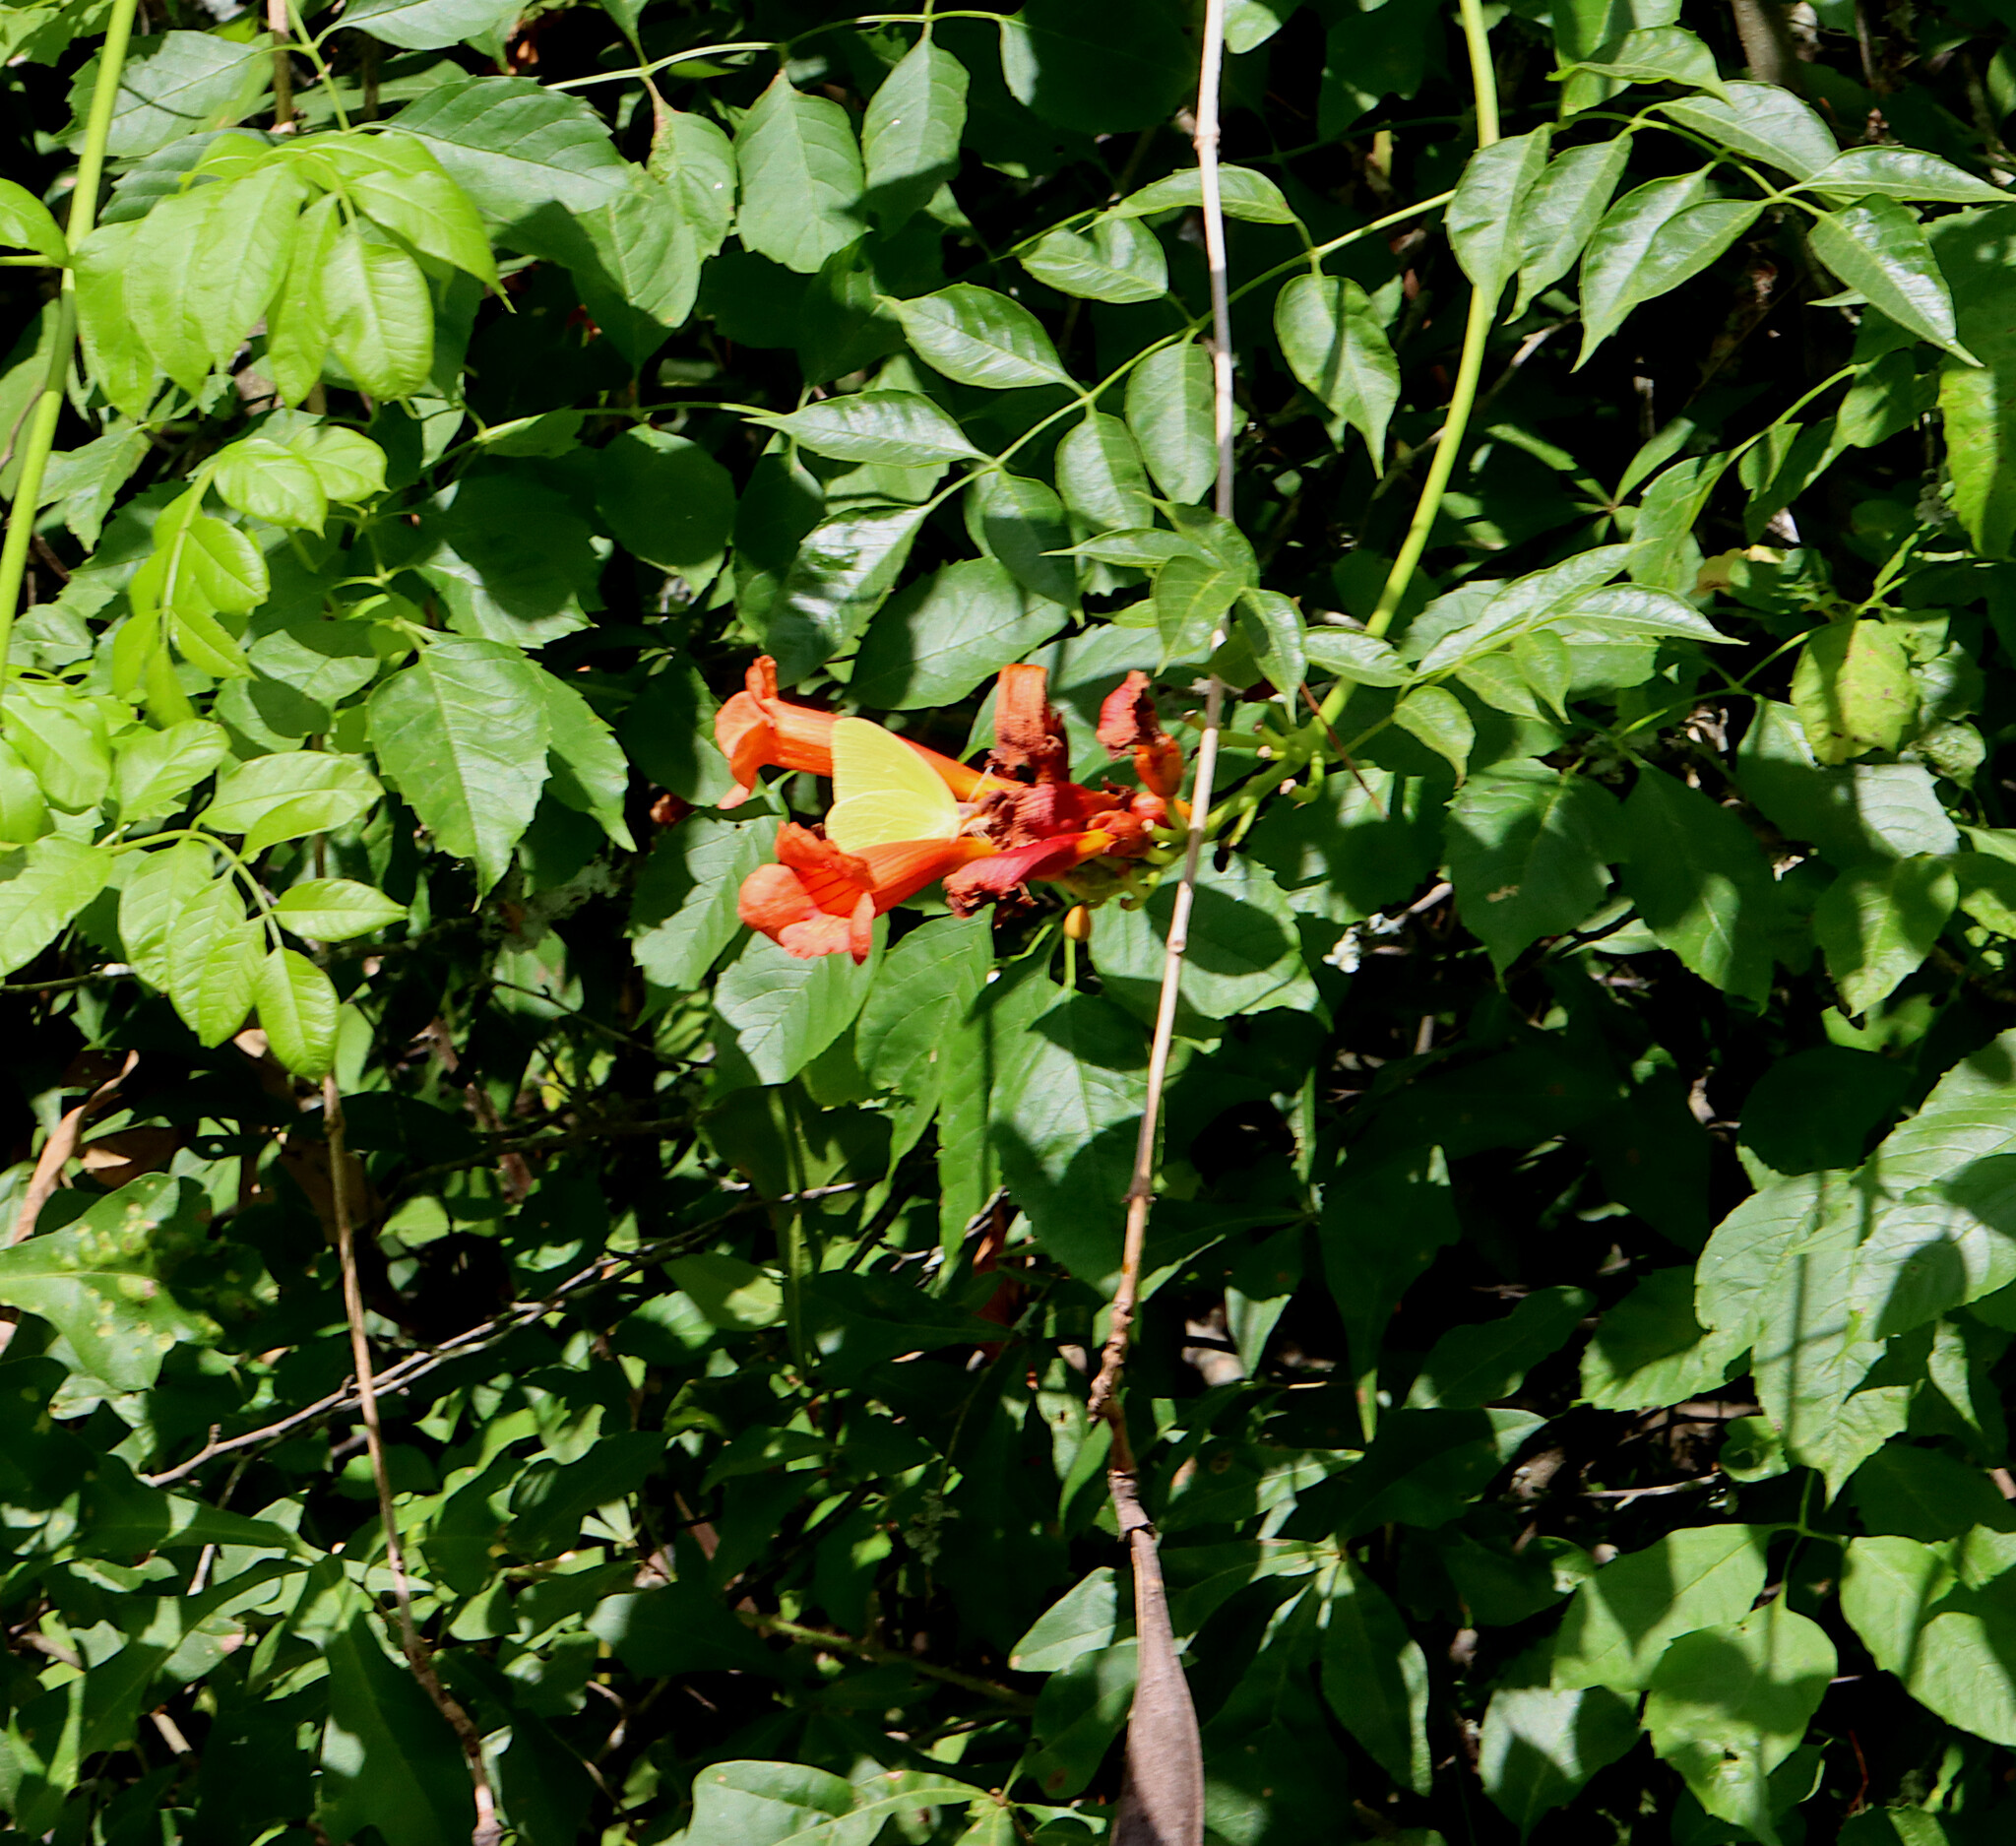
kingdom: Plantae
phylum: Tracheophyta
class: Magnoliopsida
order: Lamiales
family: Bignoniaceae
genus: Campsis
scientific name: Campsis radicans
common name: Trumpet-creeper
